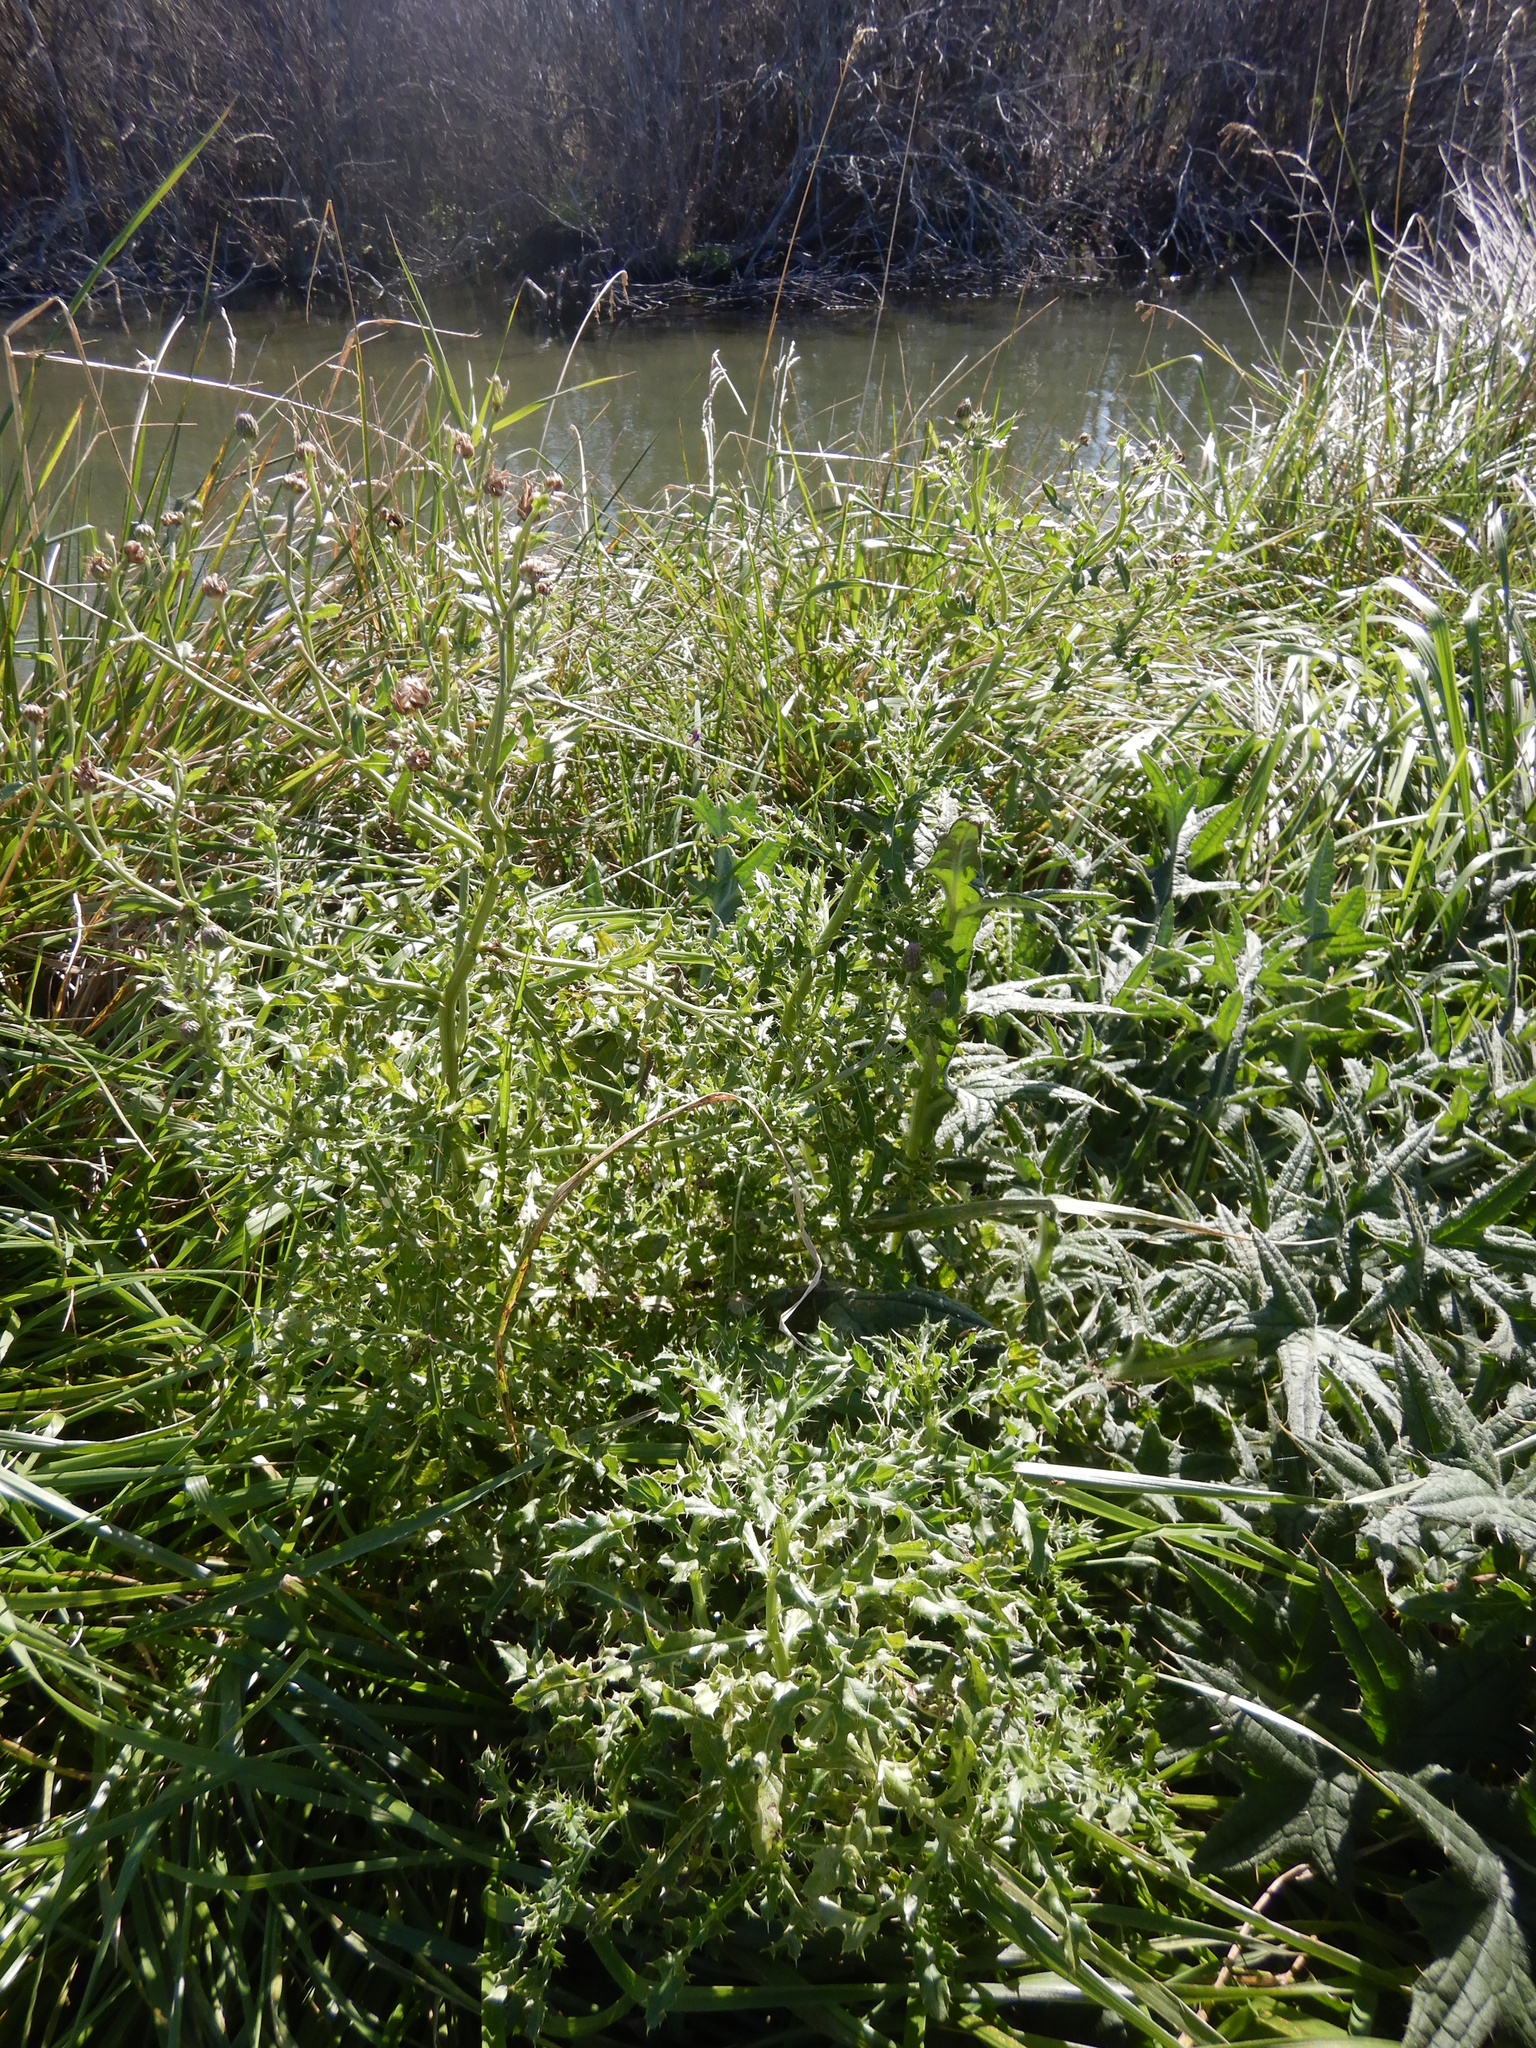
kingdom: Plantae
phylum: Tracheophyta
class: Magnoliopsida
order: Asterales
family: Asteraceae
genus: Cirsium
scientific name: Cirsium arvense
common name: Creeping thistle
